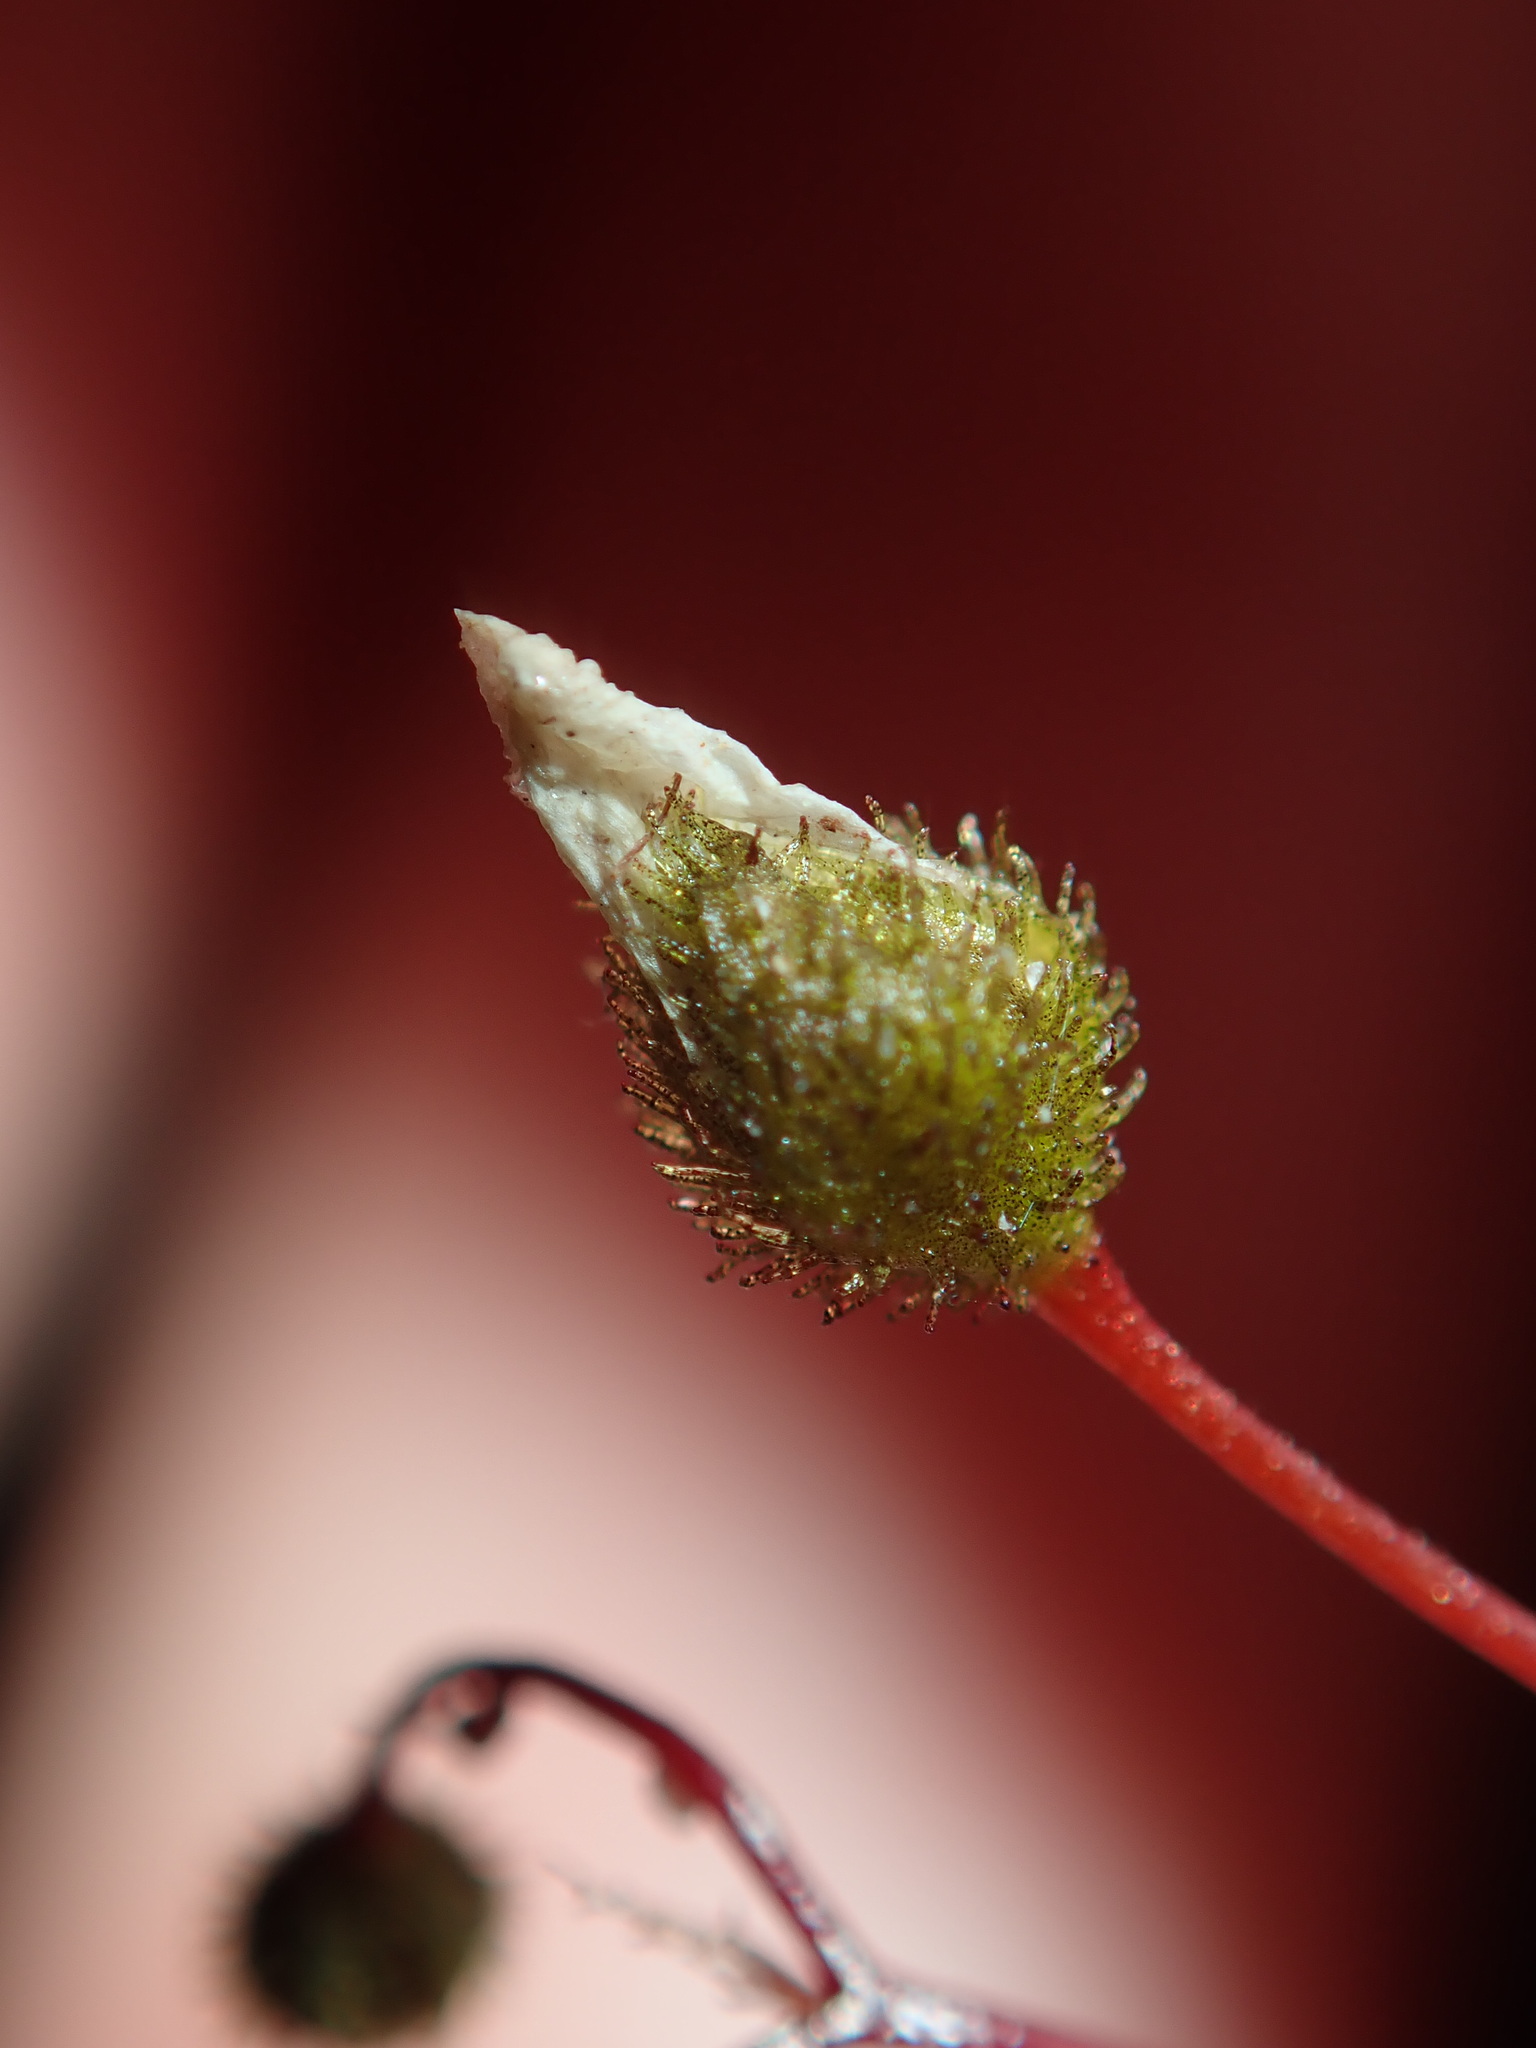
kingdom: Plantae
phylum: Tracheophyta
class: Magnoliopsida
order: Caryophyllales
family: Droseraceae
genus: Drosera
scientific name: Drosera peltata
